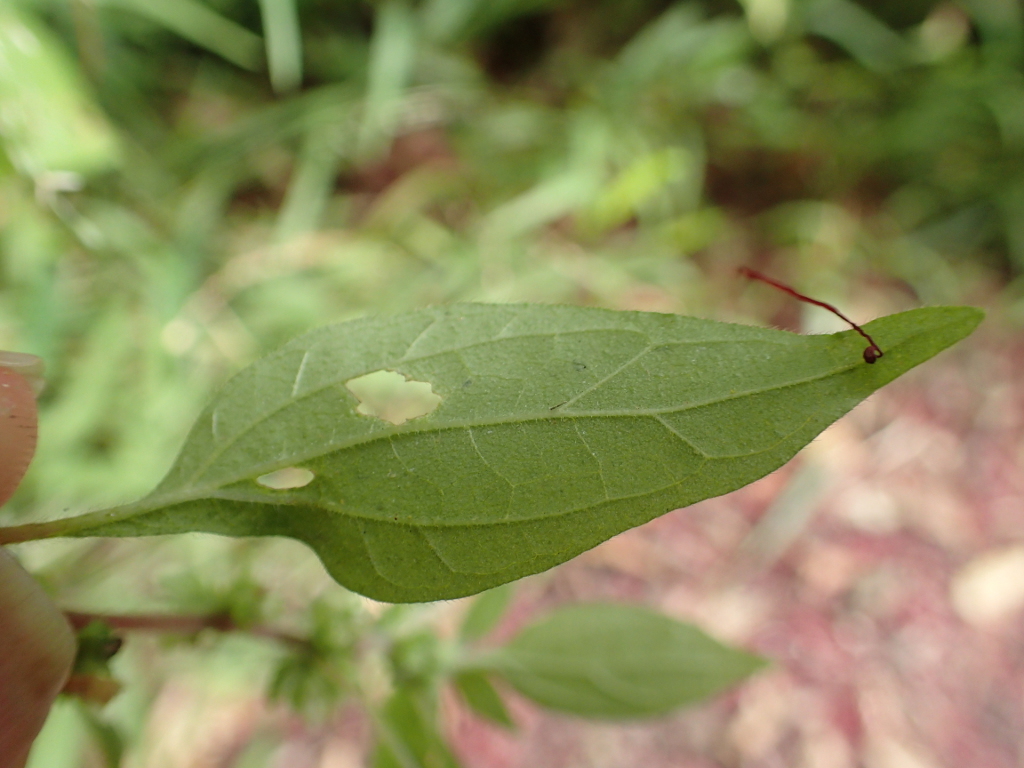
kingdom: Plantae
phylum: Tracheophyta
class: Magnoliopsida
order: Rosales
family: Urticaceae
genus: Parietaria
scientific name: Parietaria judaica
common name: Pellitory-of-the-wall
